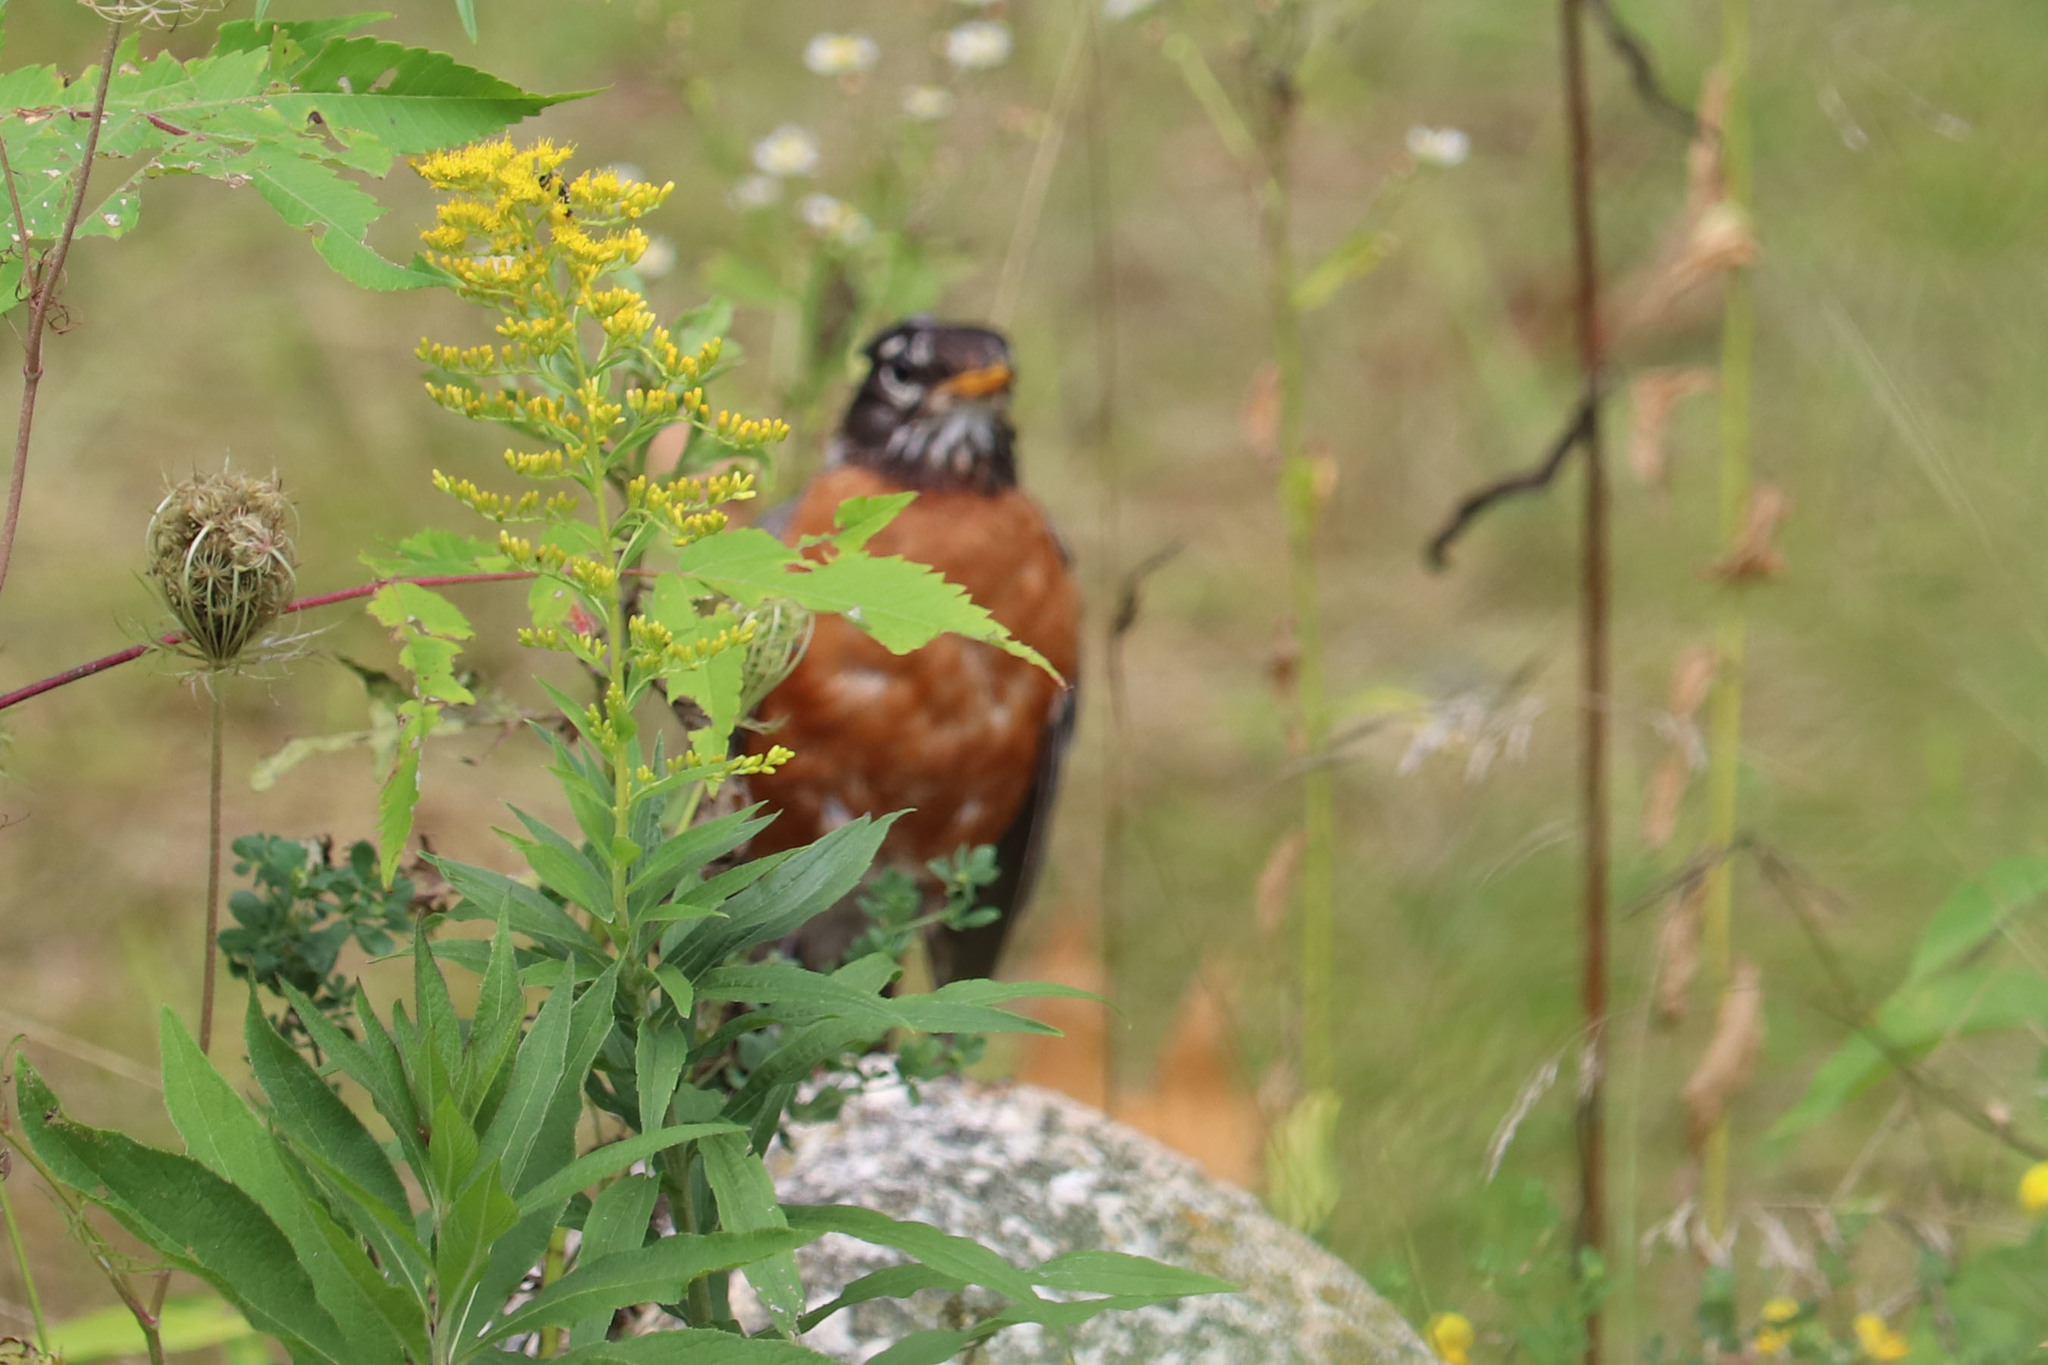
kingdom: Animalia
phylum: Chordata
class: Aves
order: Passeriformes
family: Turdidae
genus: Turdus
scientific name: Turdus migratorius
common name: American robin
